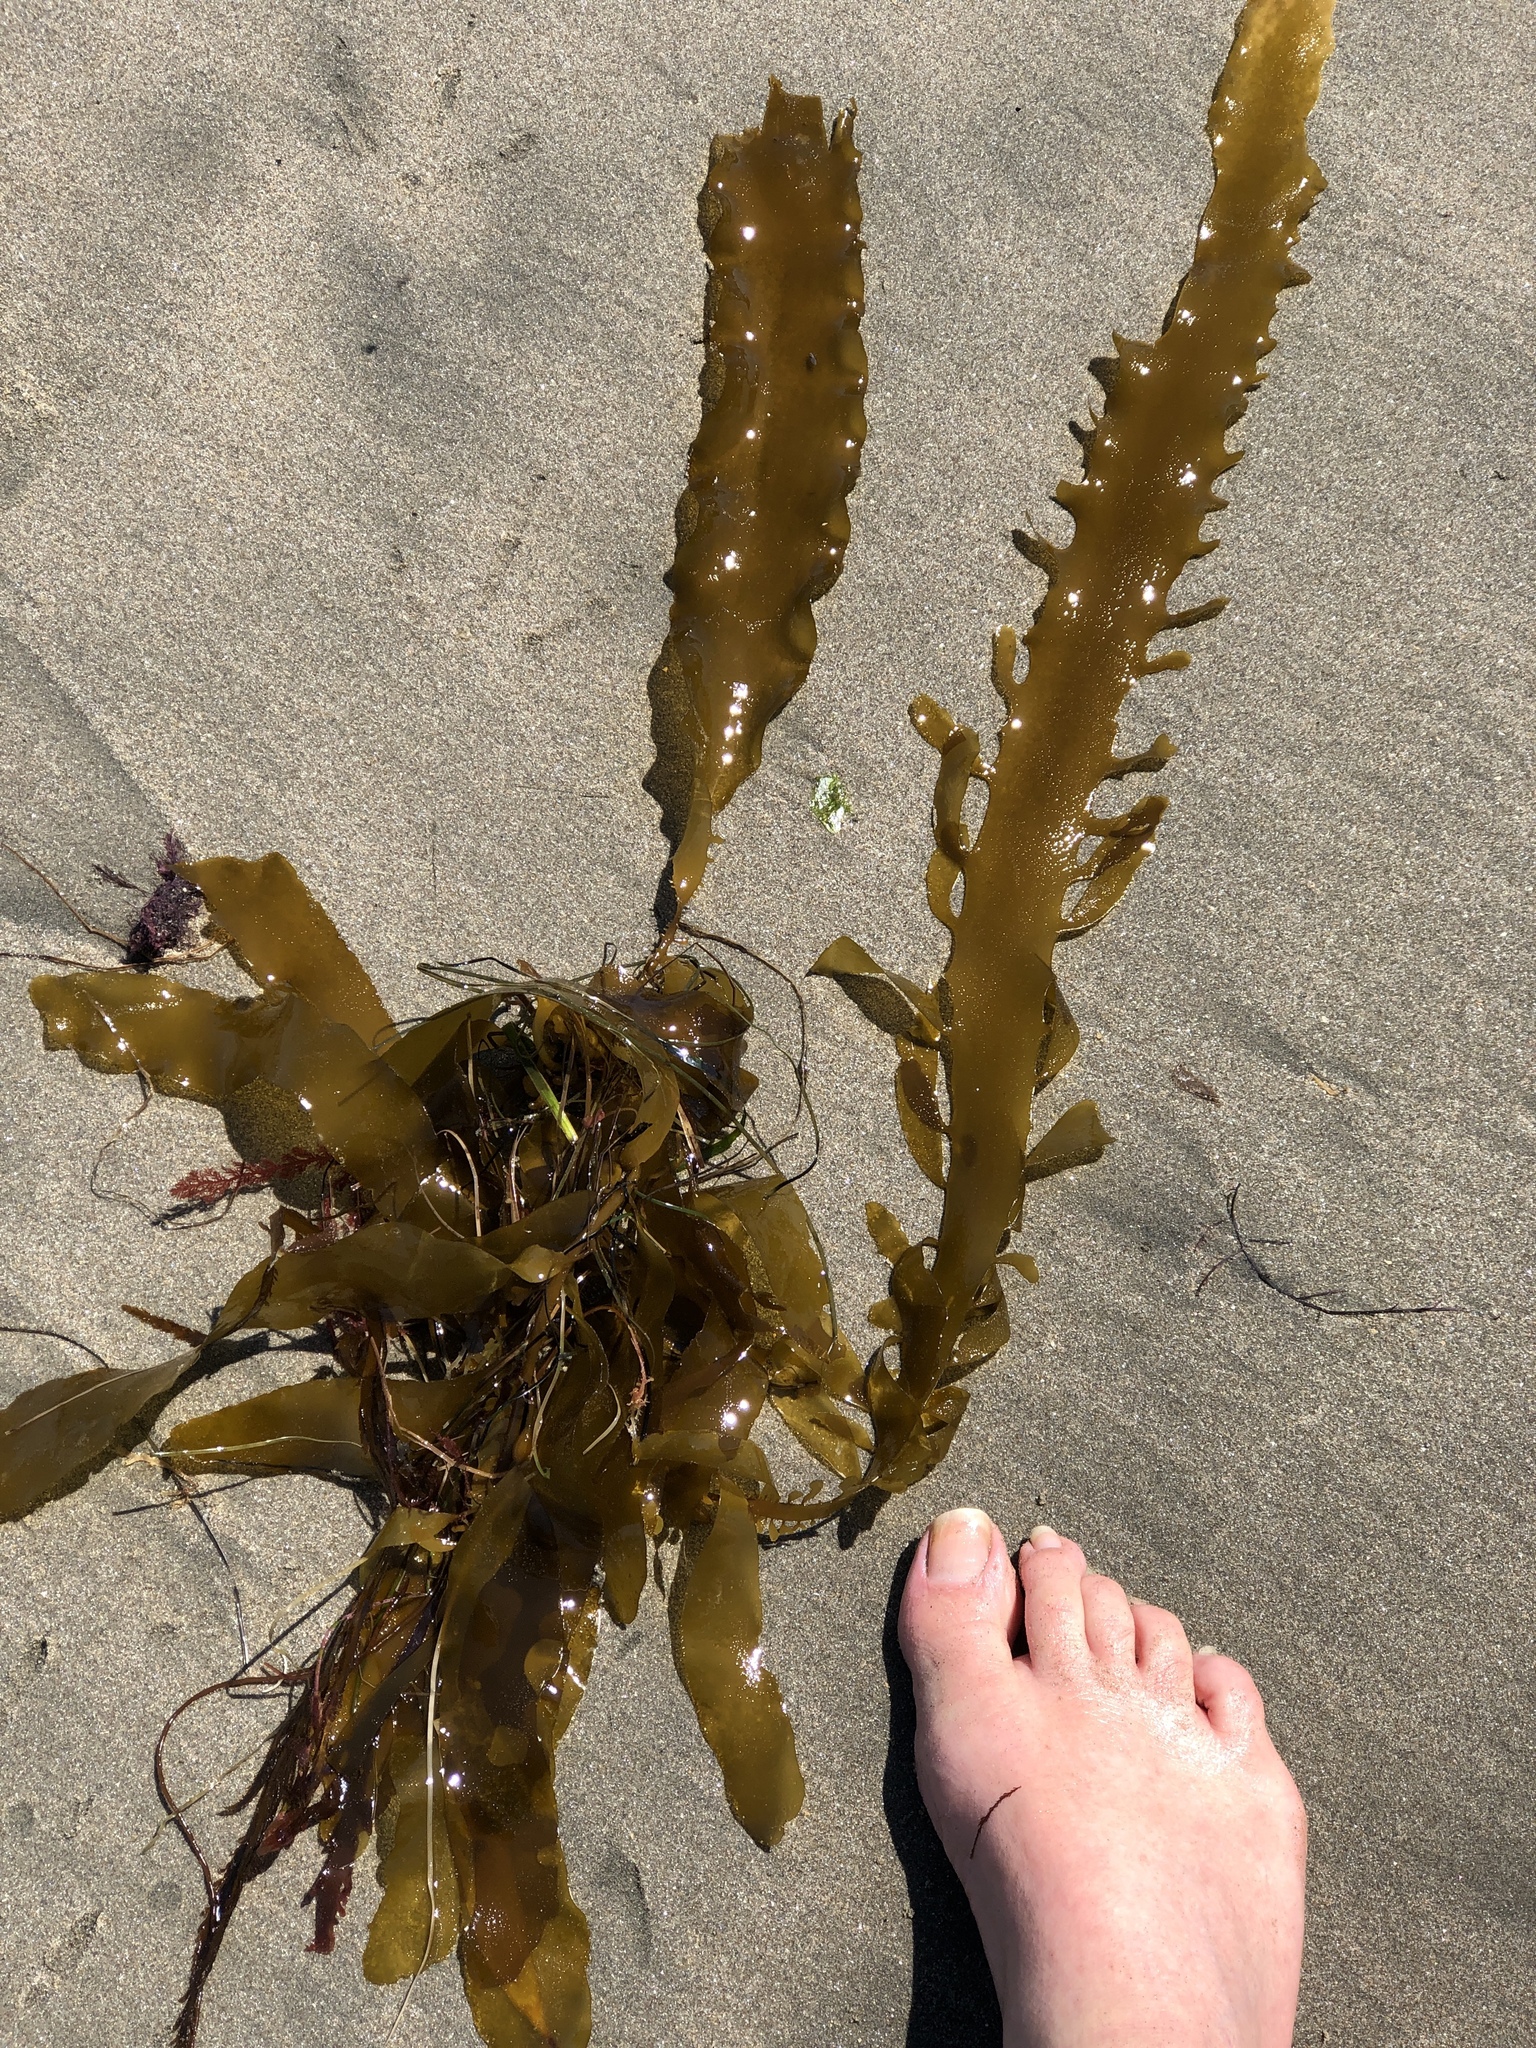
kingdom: Chromista
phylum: Ochrophyta
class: Phaeophyceae
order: Laminariales
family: Lessoniaceae
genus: Egregia
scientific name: Egregia menziesii
